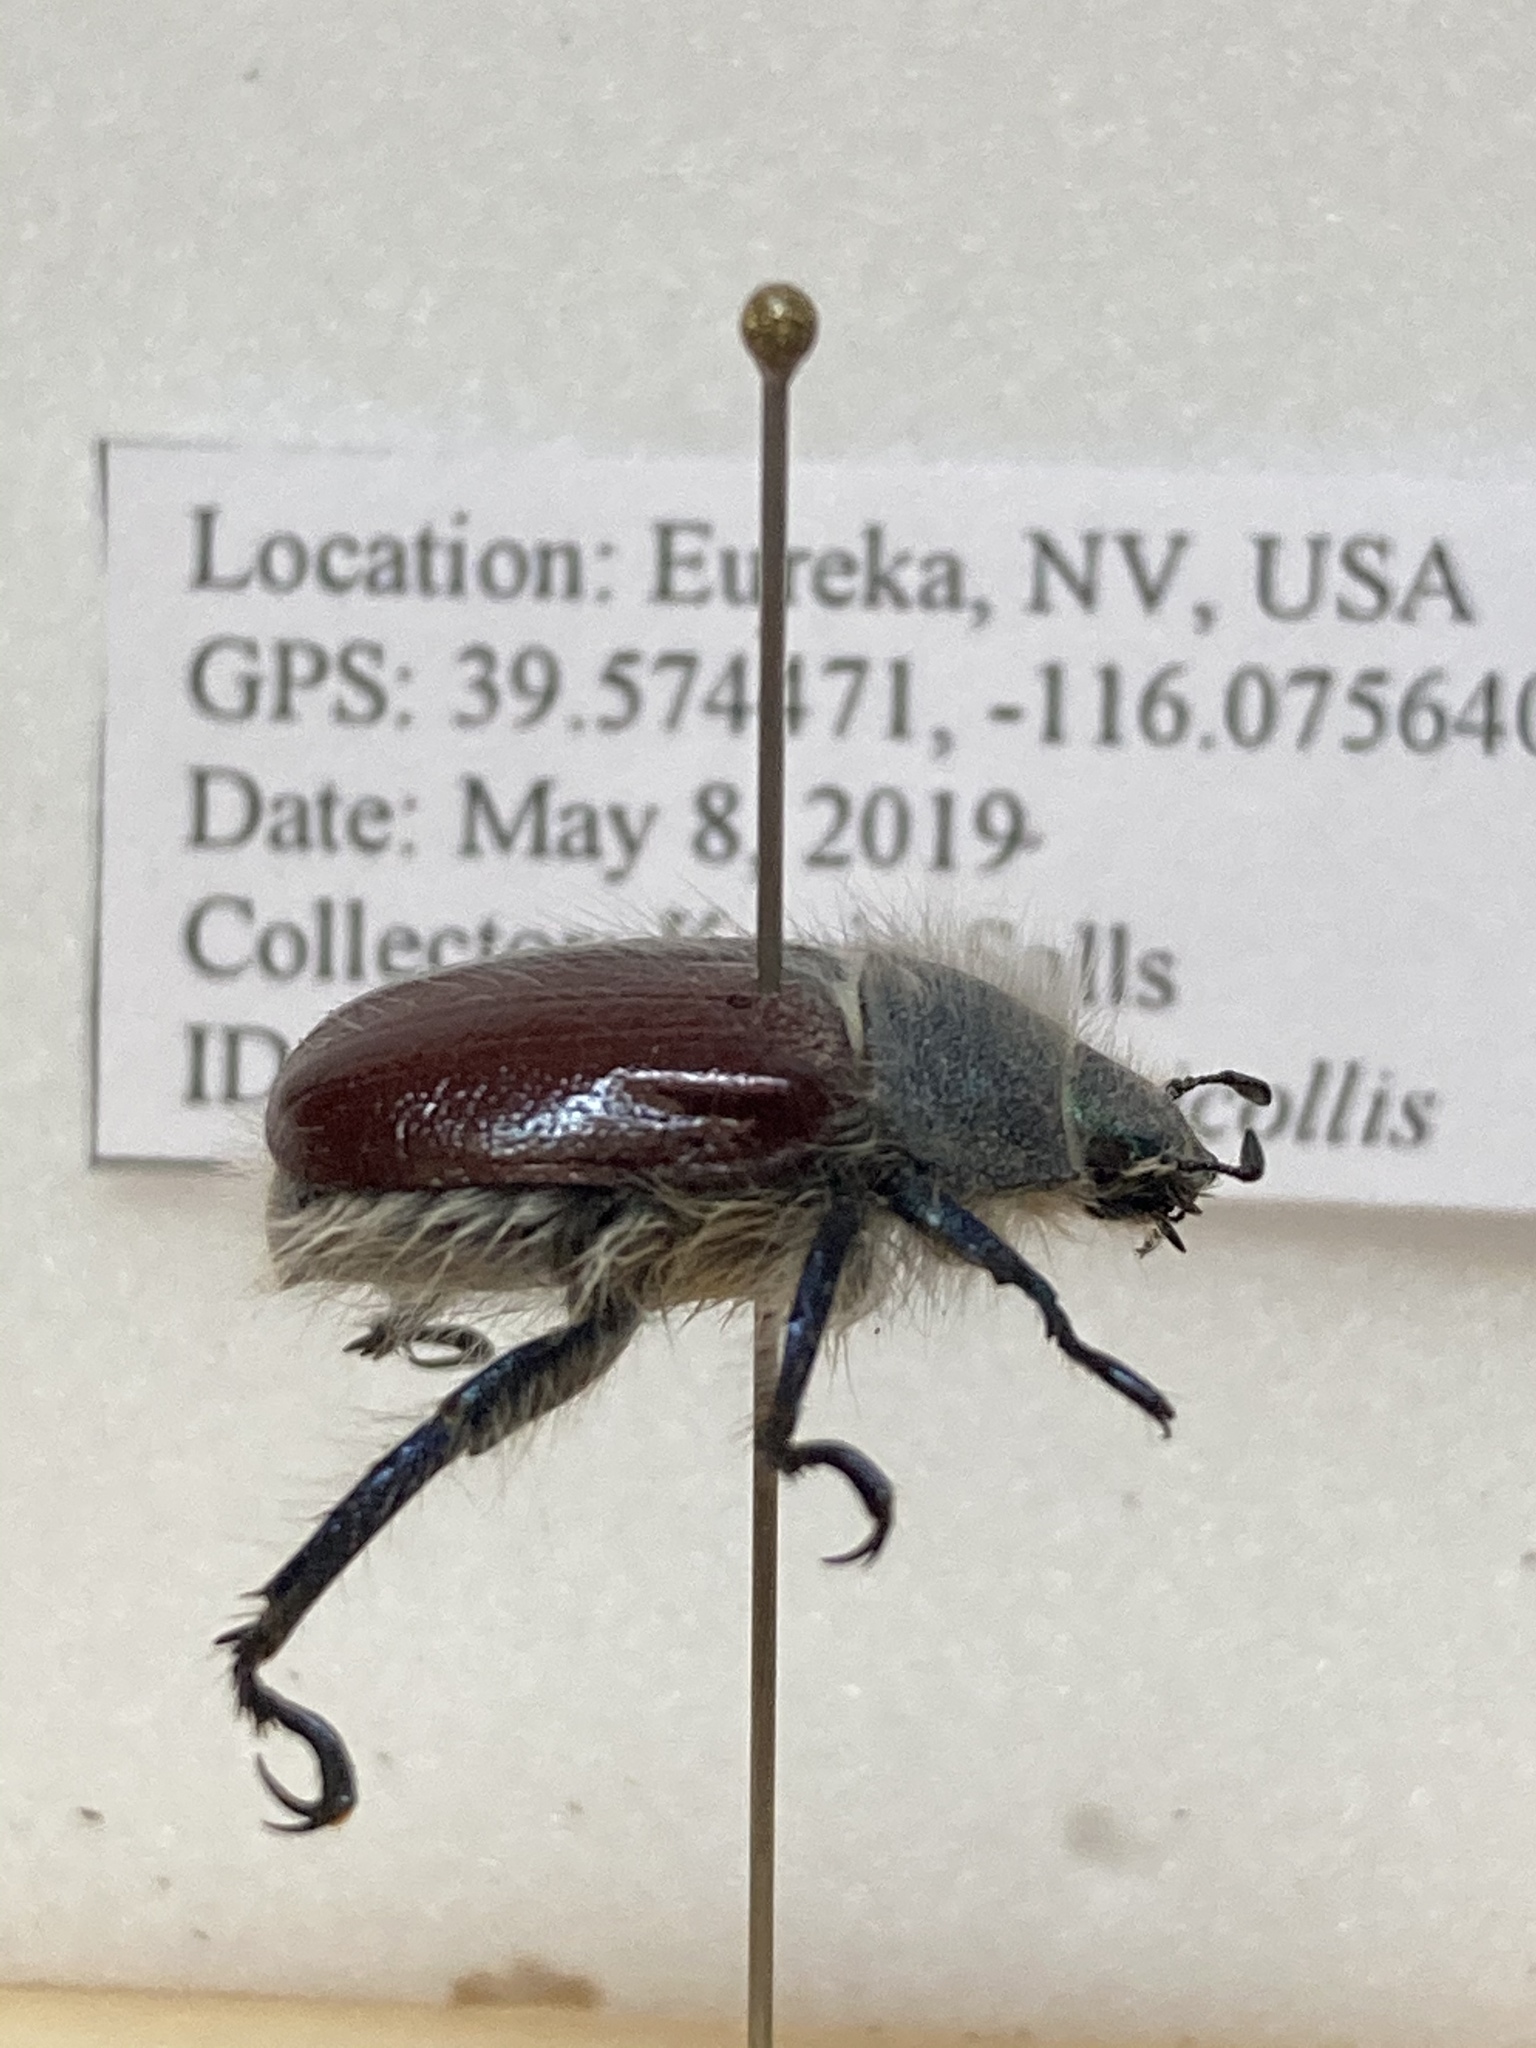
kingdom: Animalia
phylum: Arthropoda
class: Insecta
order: Coleoptera
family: Scarabaeidae
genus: Paracotalpa
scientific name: Paracotalpa granicollis
